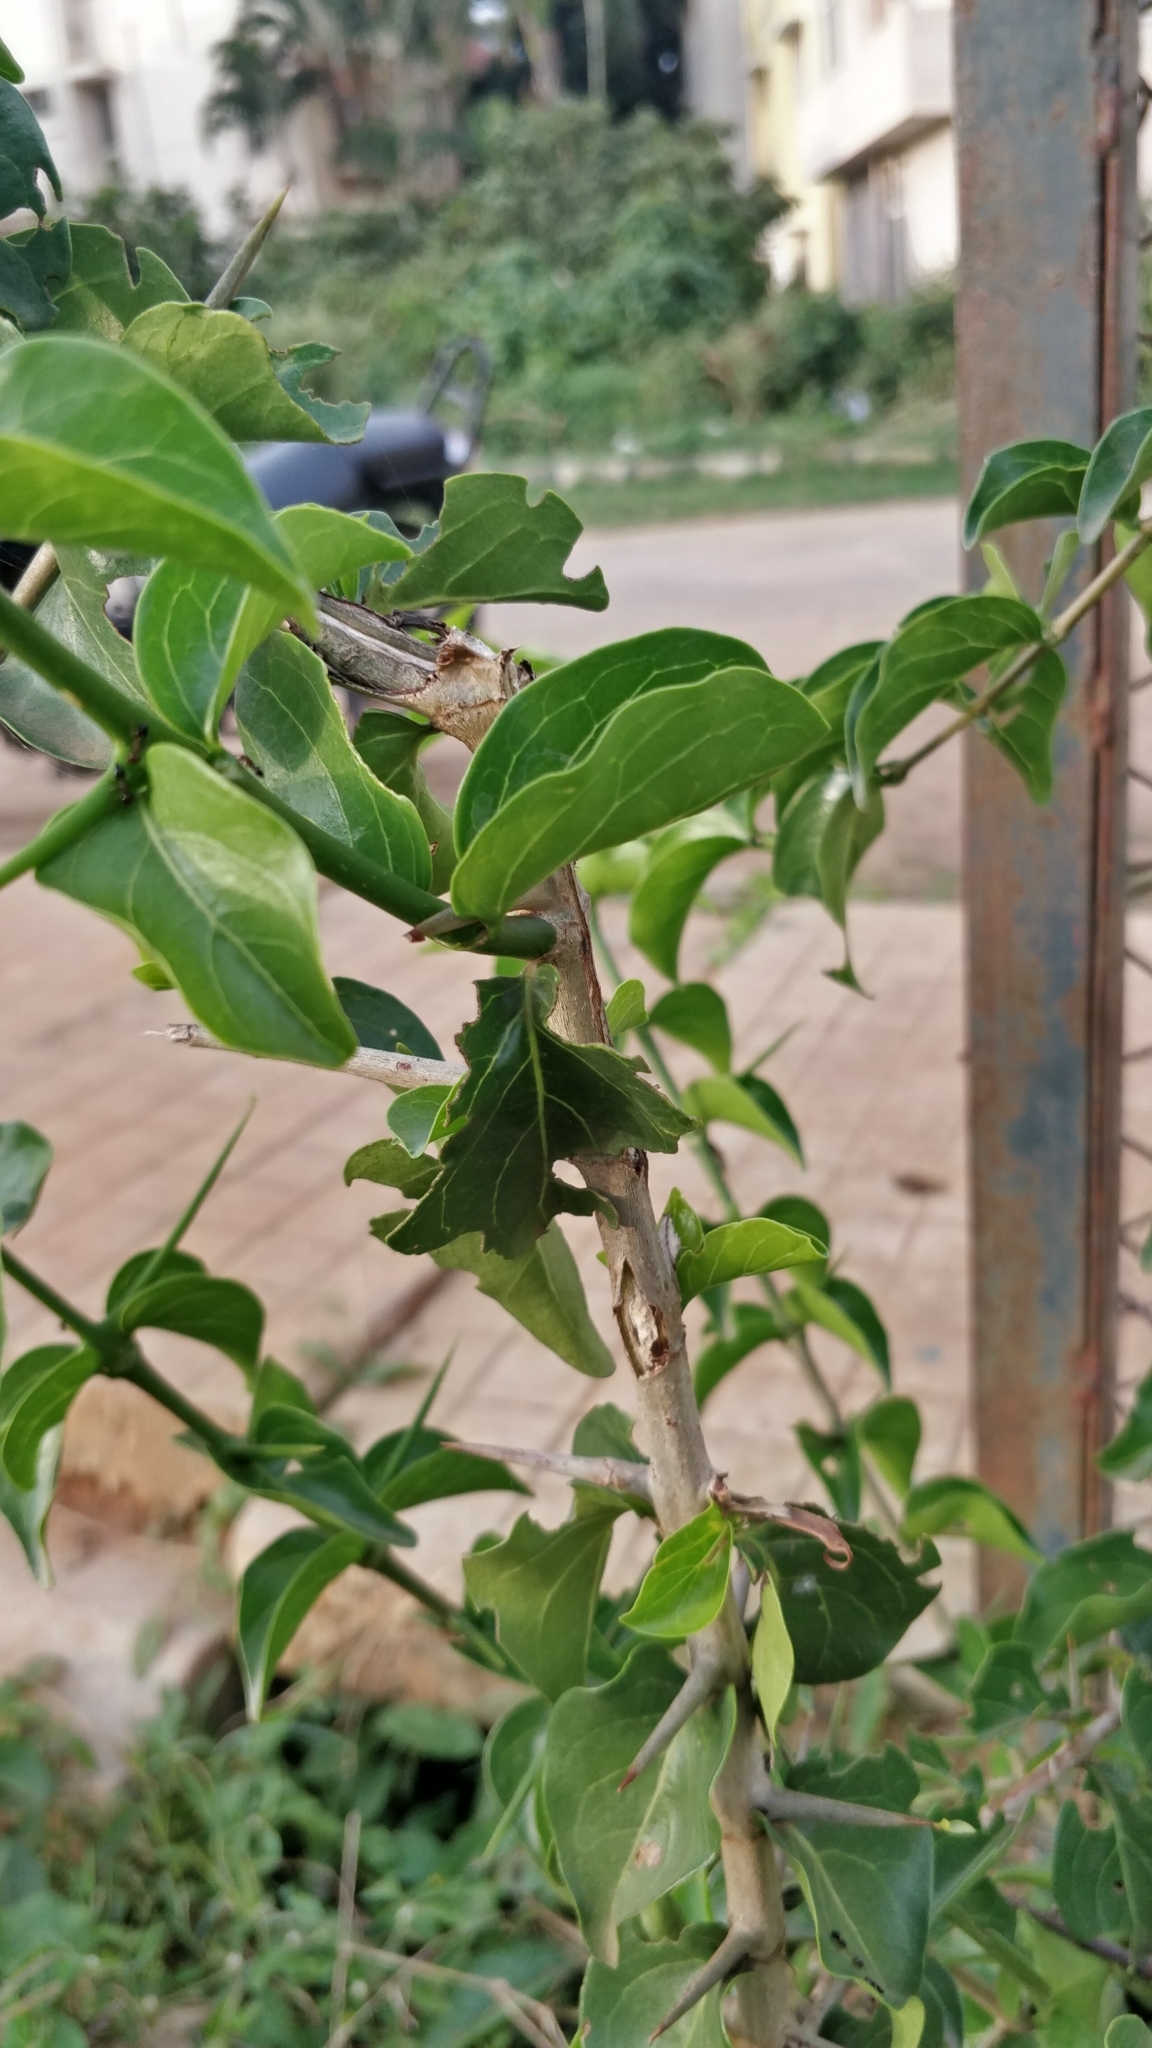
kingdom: Plantae
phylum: Tracheophyta
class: Magnoliopsida
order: Gentianales
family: Rubiaceae
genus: Canthium
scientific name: Canthium coromandelicum
